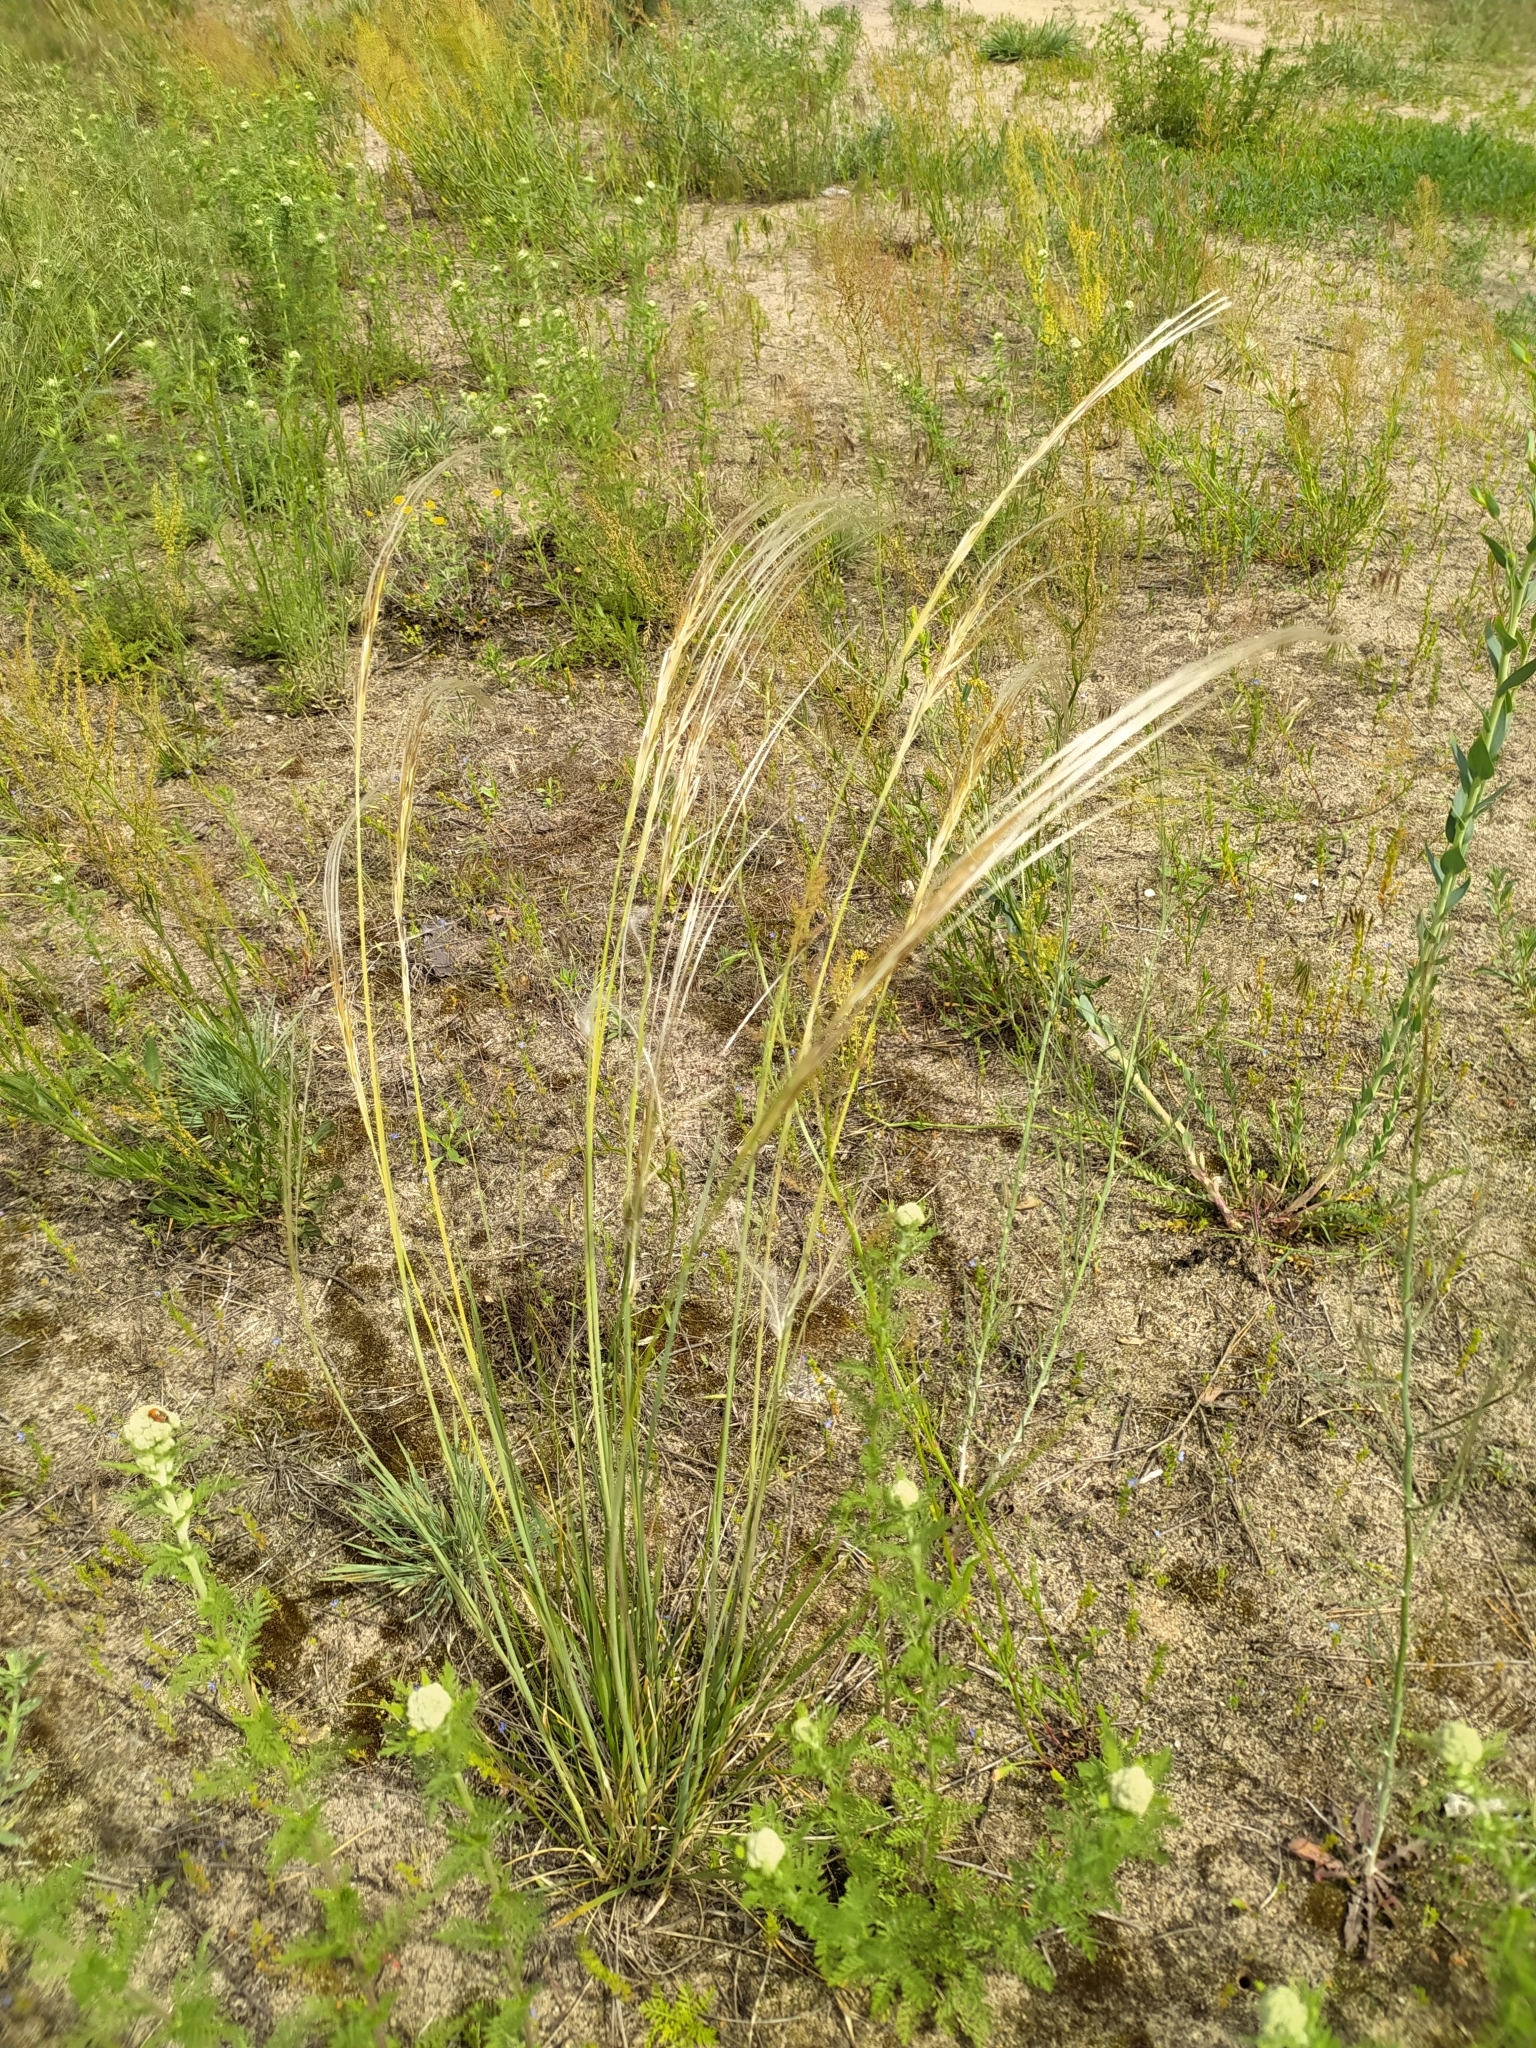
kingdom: Plantae
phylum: Tracheophyta
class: Liliopsida
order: Poales
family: Poaceae
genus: Stipa
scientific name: Stipa pennata
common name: European feather grass
